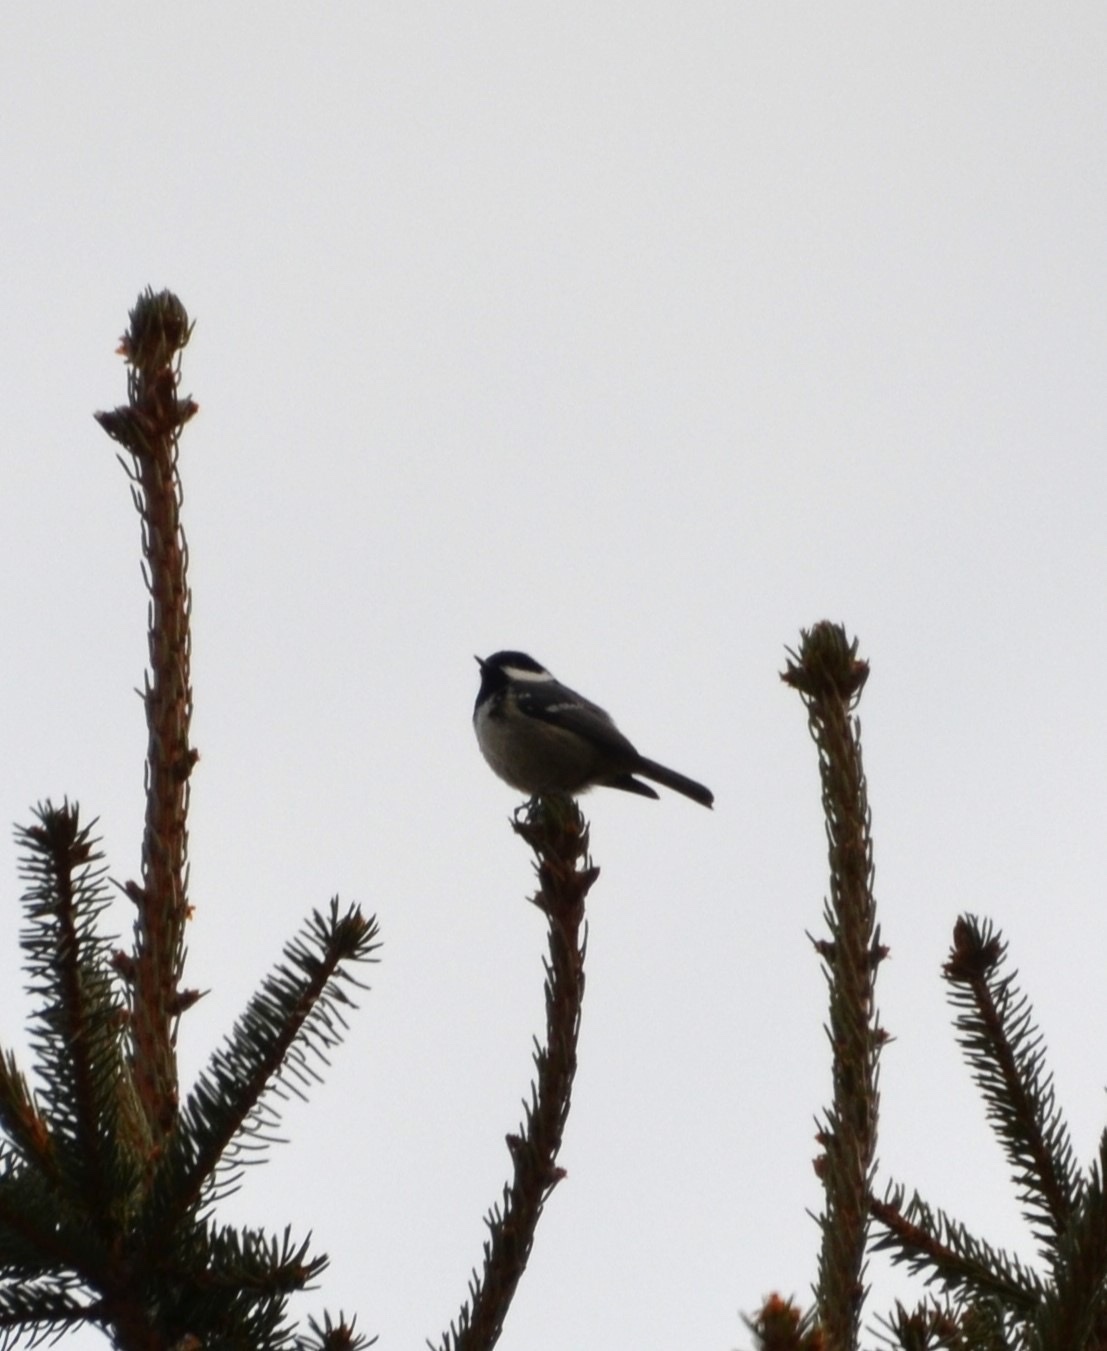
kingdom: Animalia
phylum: Chordata
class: Aves
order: Passeriformes
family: Paridae
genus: Periparus
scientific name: Periparus ater
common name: Coal tit
